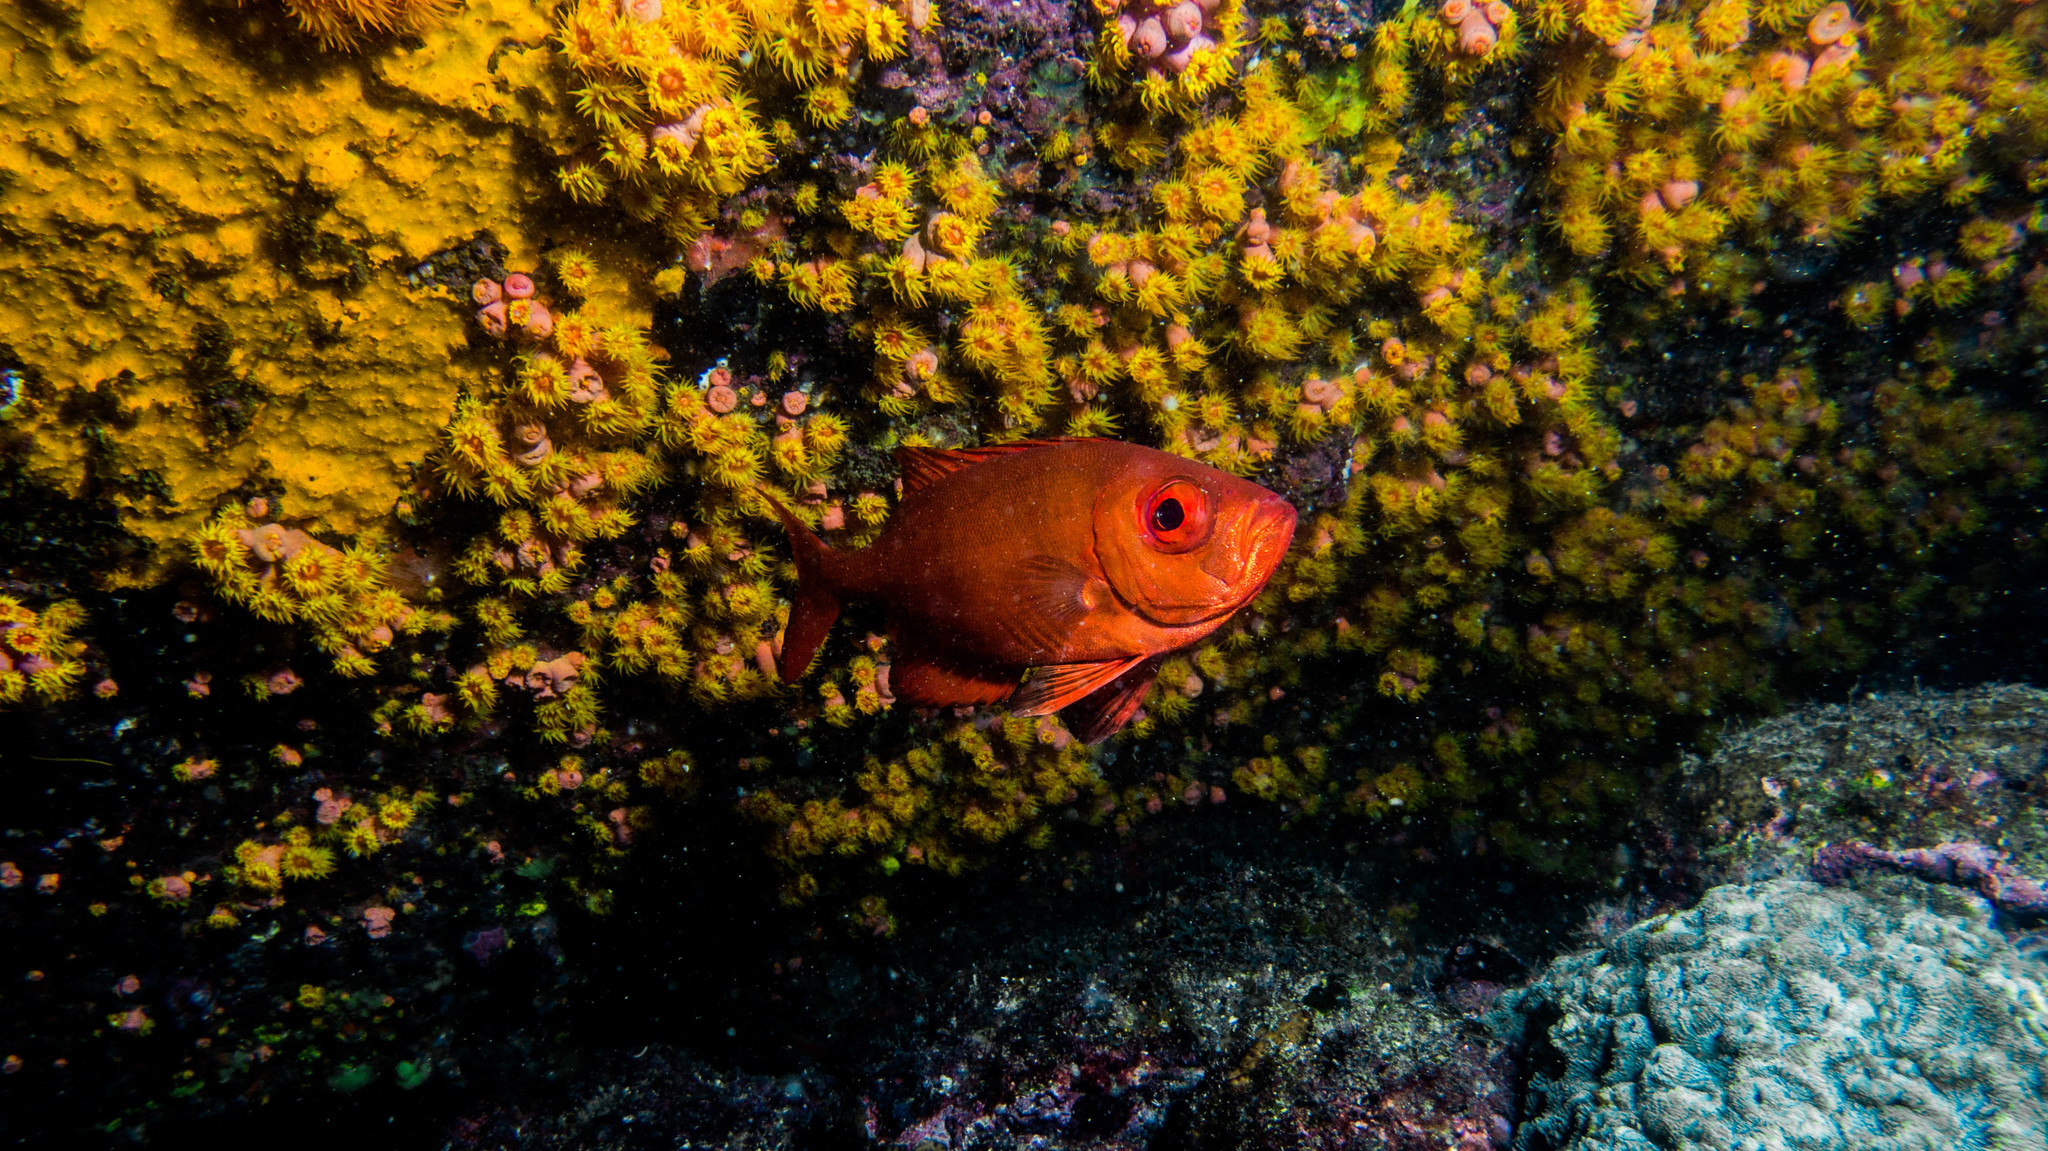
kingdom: Animalia
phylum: Chordata
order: Perciformes
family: Priacanthidae
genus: Priacanthus
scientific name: Priacanthus arenatus
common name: Atlantic bigeye
